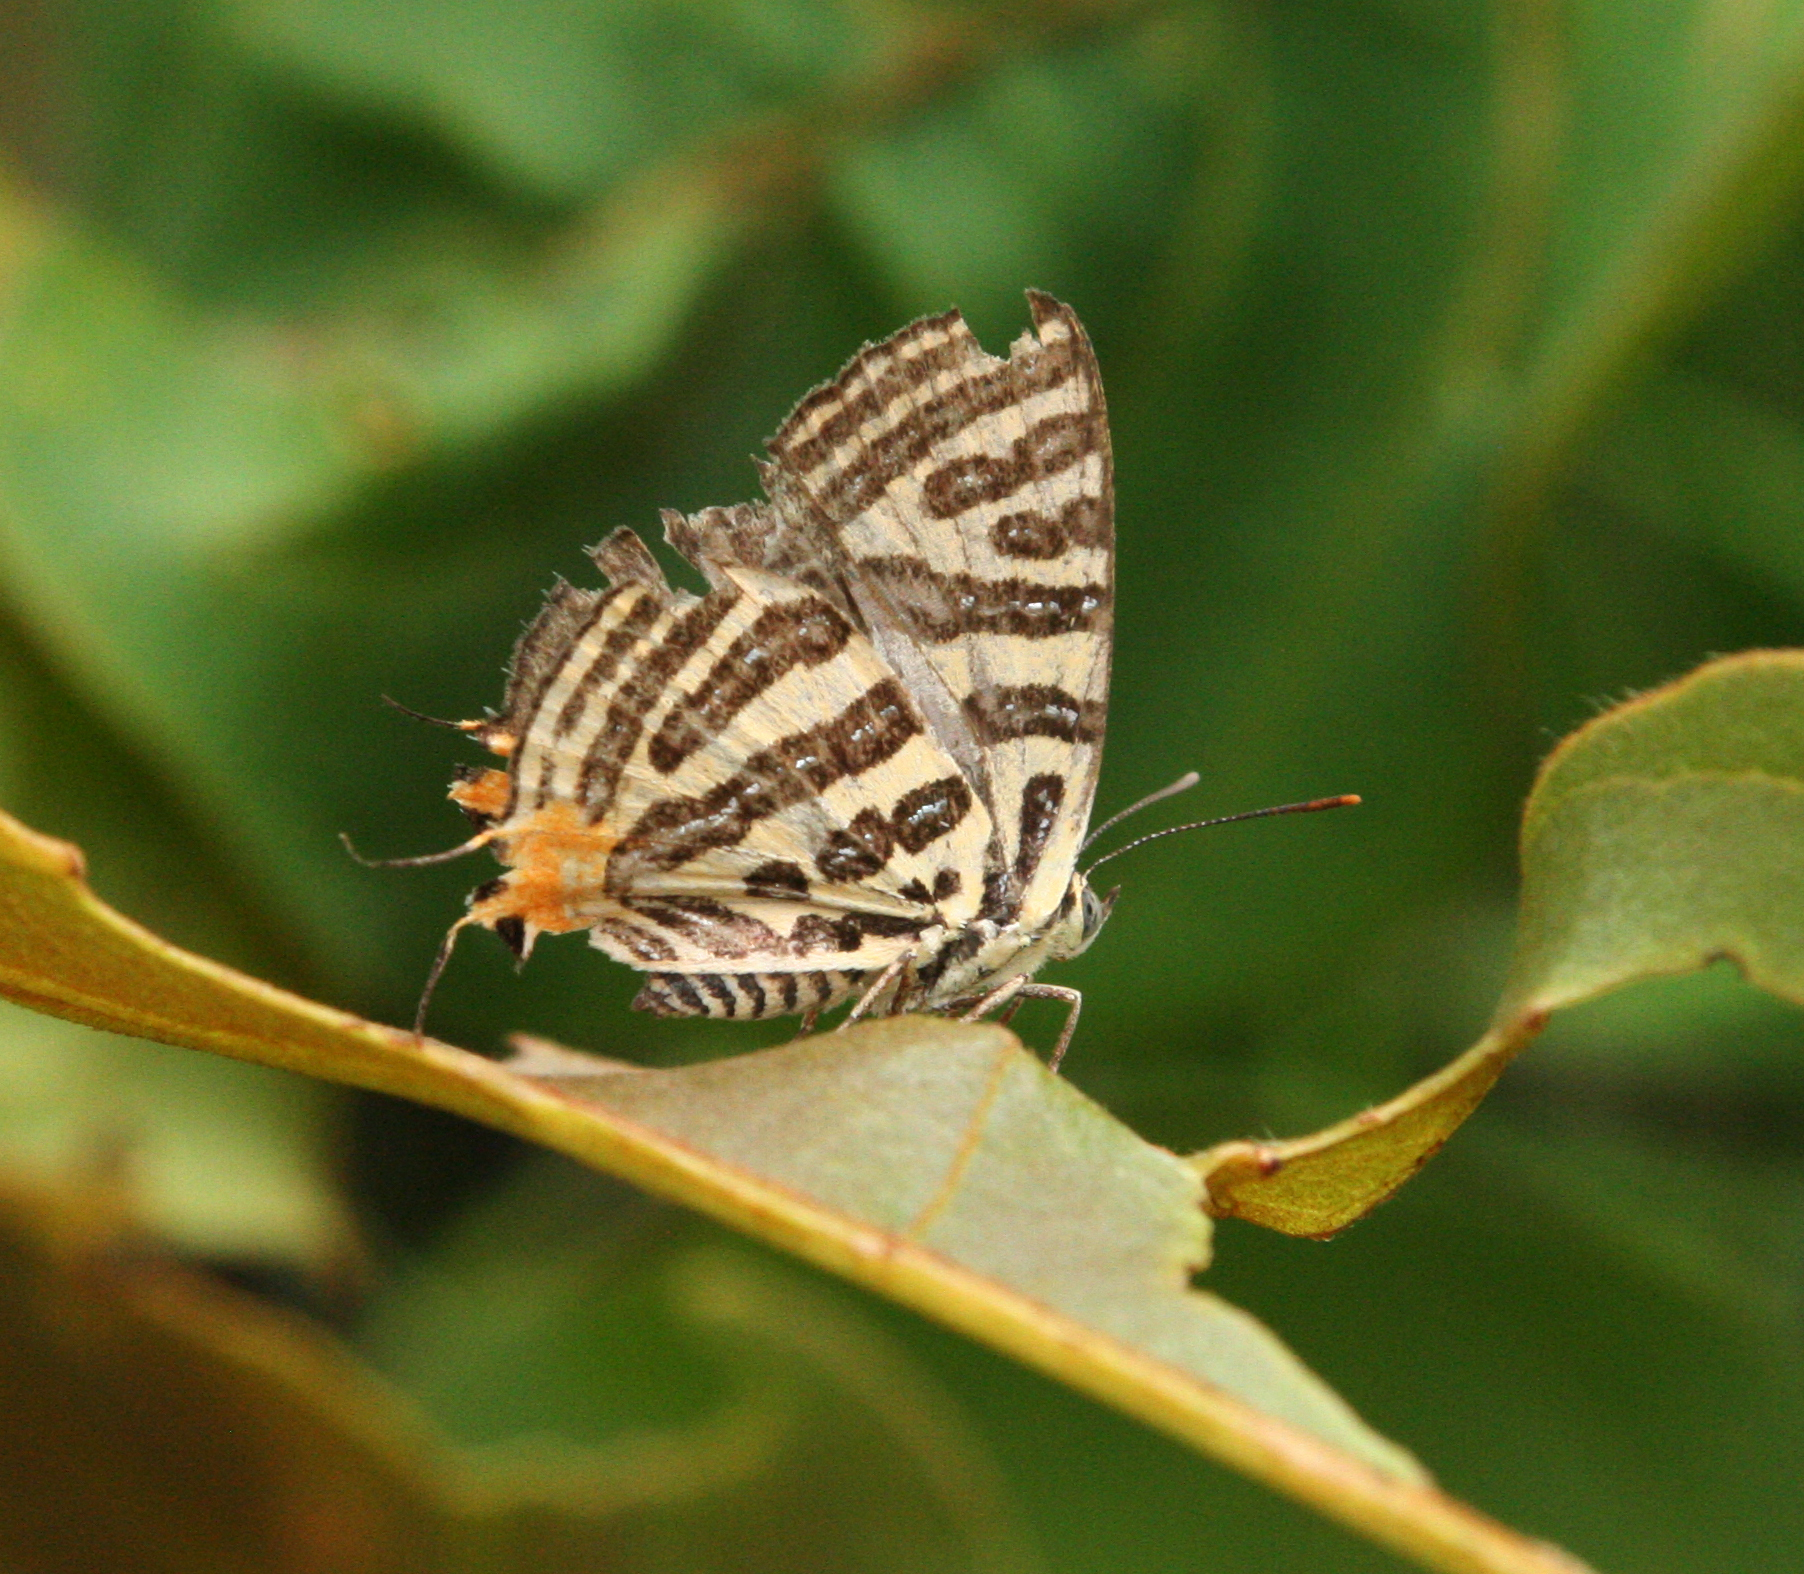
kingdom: Animalia
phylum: Arthropoda
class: Insecta
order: Lepidoptera
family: Lycaenidae
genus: Cigaritis
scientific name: Cigaritis syama
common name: Club silverline
